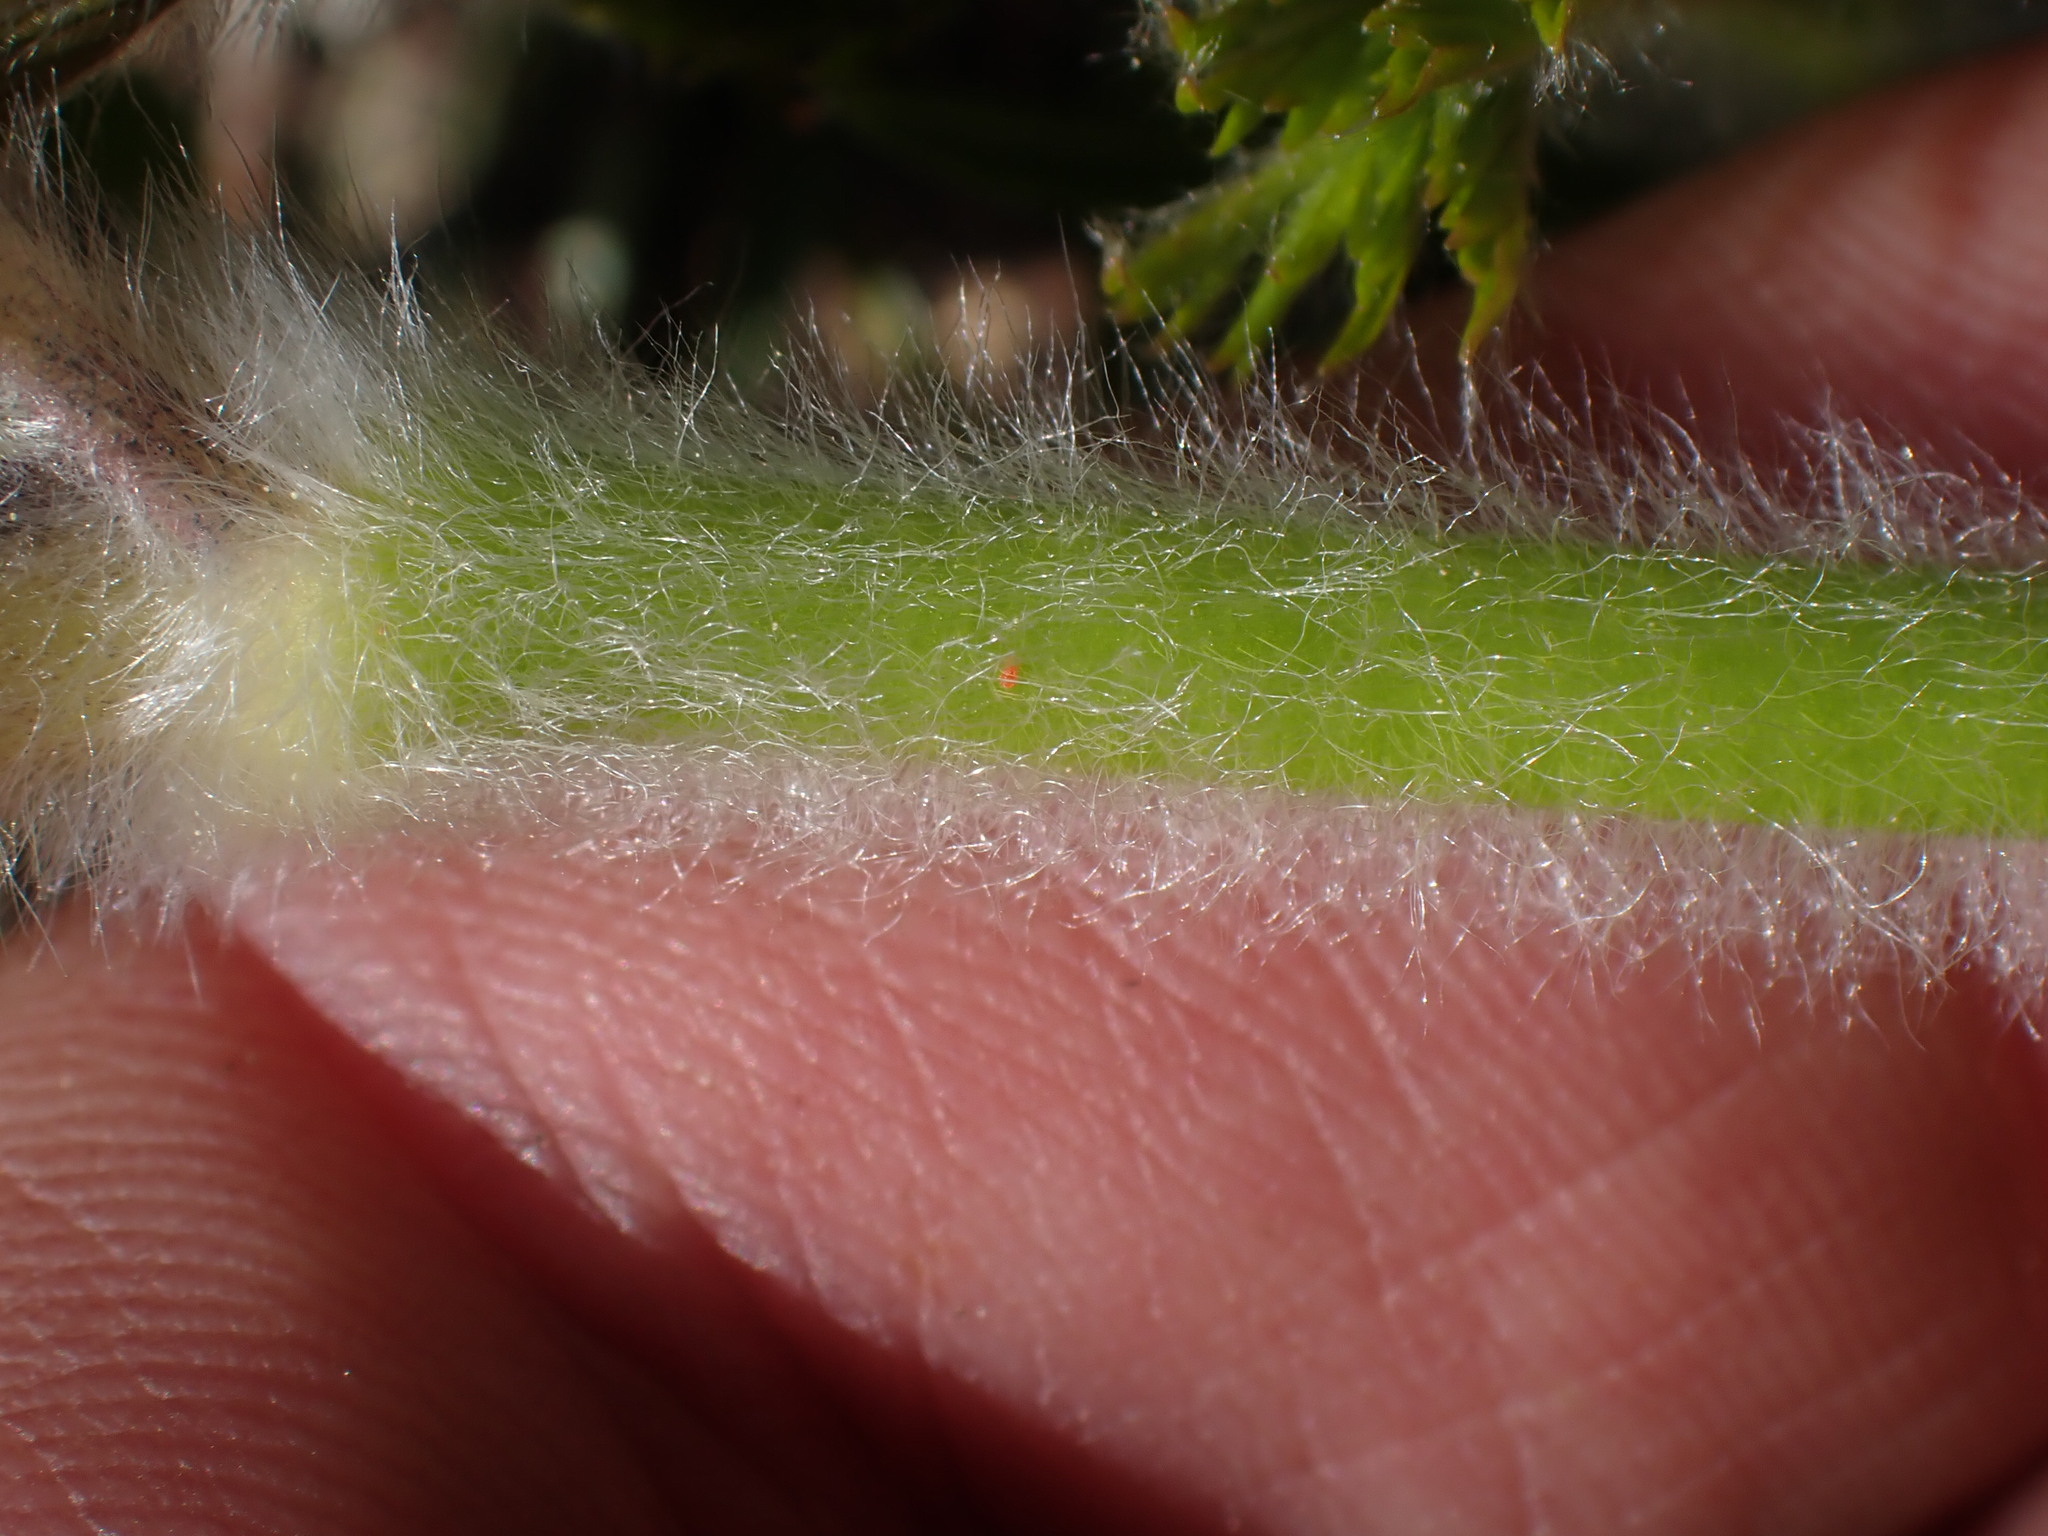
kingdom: Plantae
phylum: Tracheophyta
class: Magnoliopsida
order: Ranunculales
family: Ranunculaceae
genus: Pulsatilla
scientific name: Pulsatilla occidentalis
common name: Mountain pasqueflower
